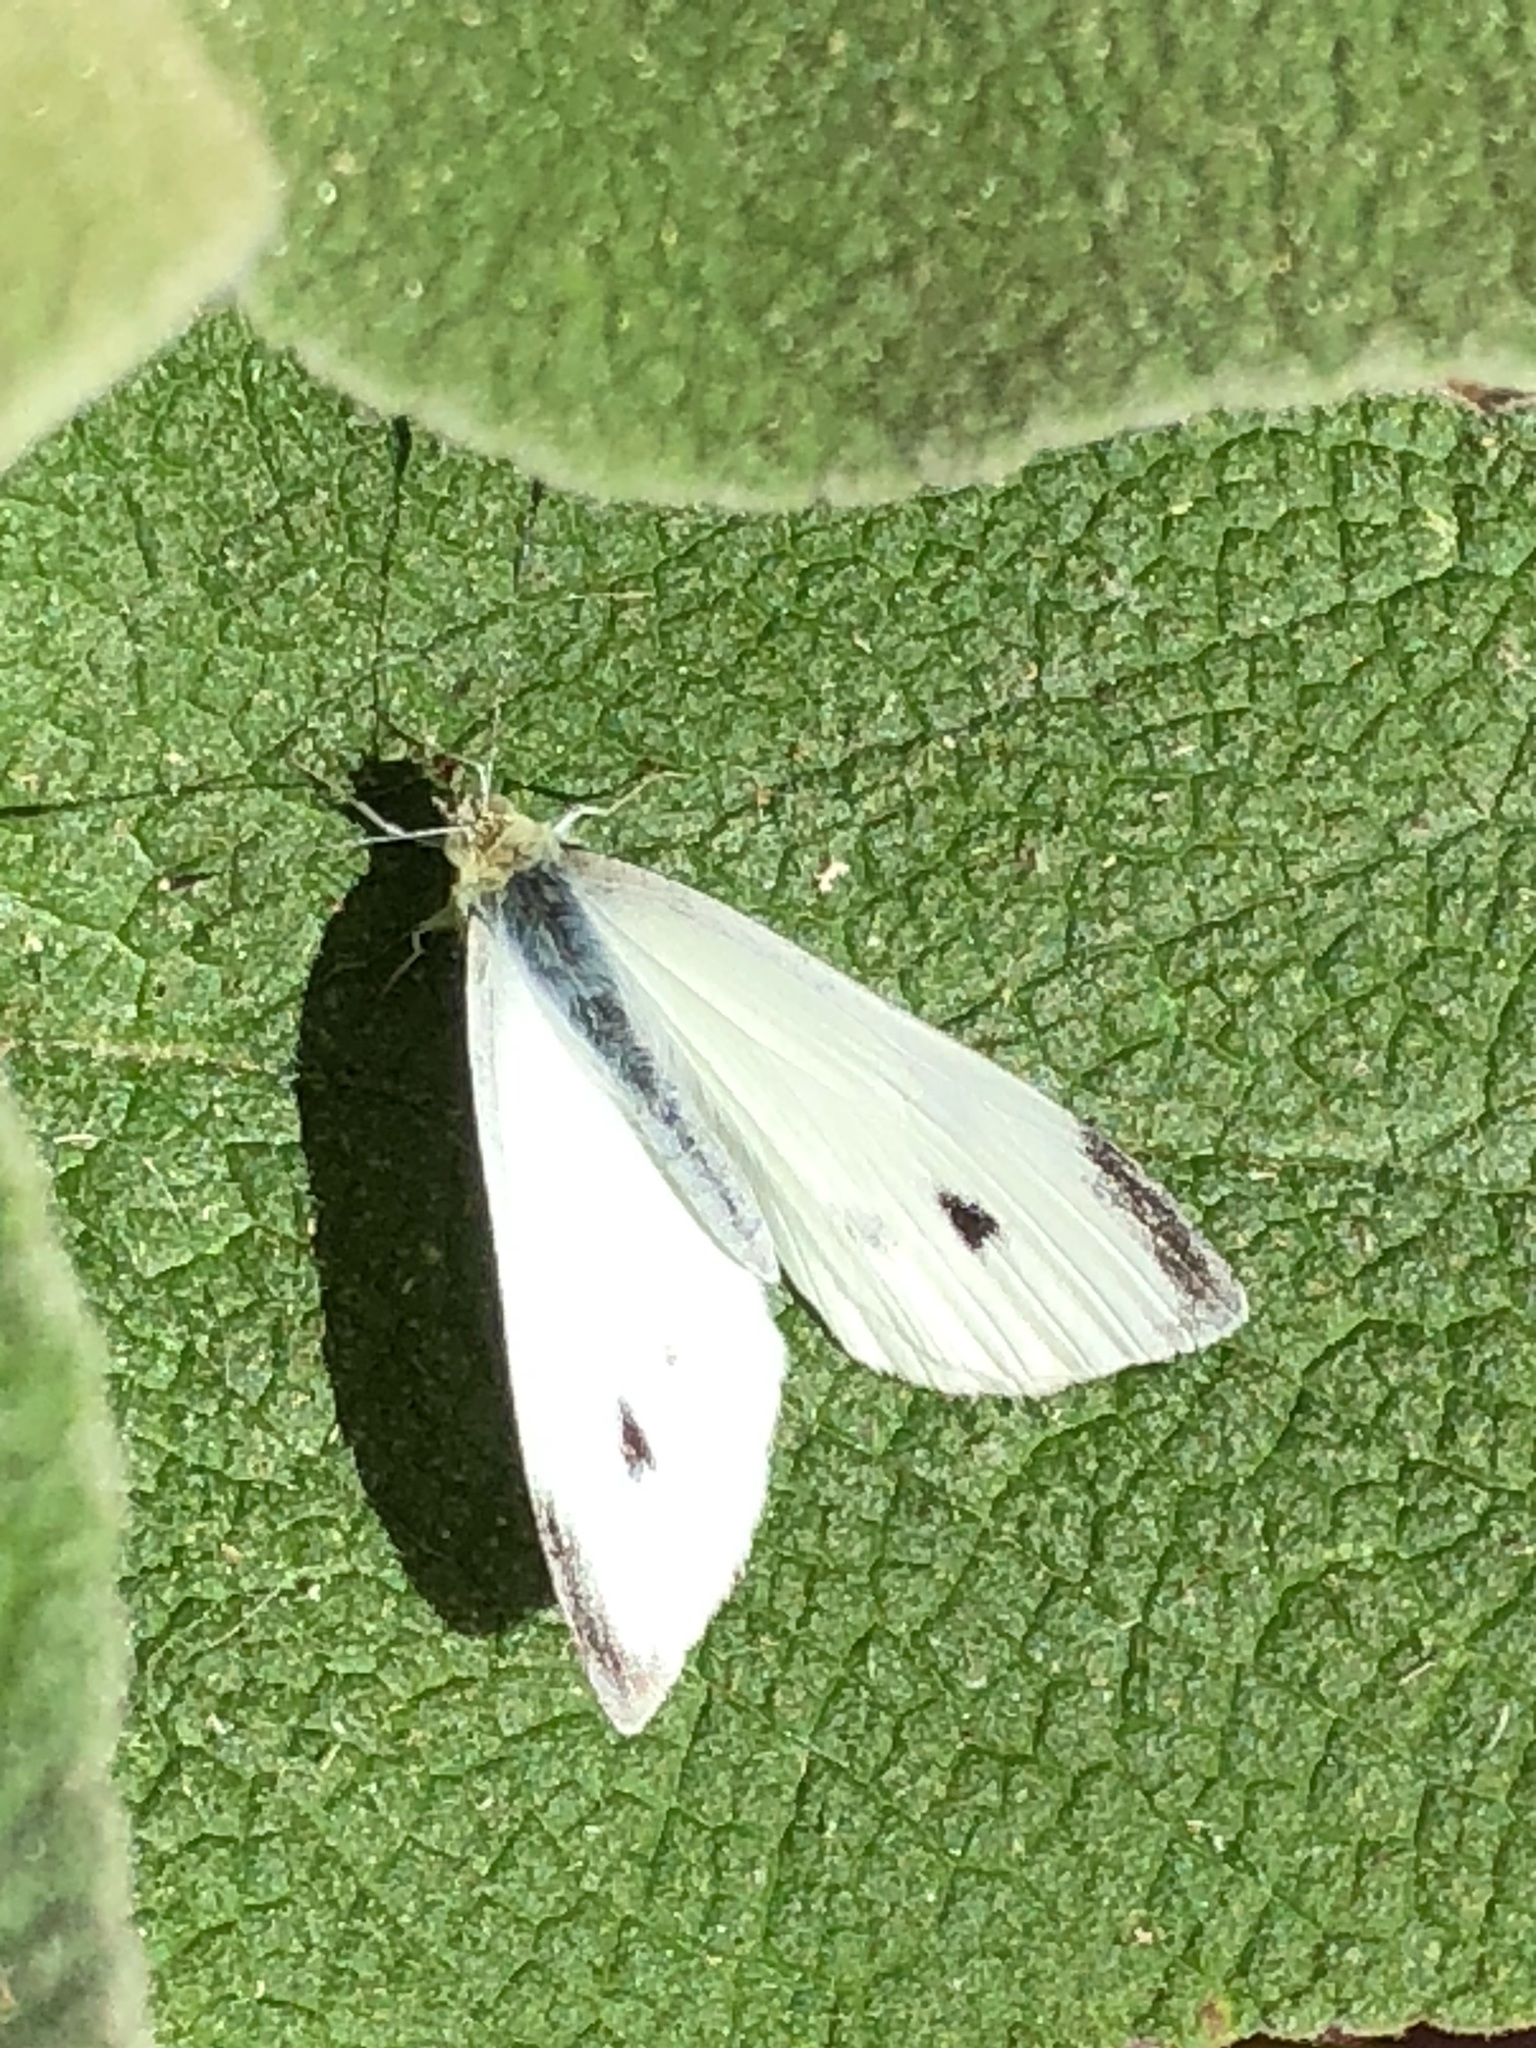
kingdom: Animalia
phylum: Arthropoda
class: Insecta
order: Lepidoptera
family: Pieridae
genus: Pieris
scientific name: Pieris rapae
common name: Small white
